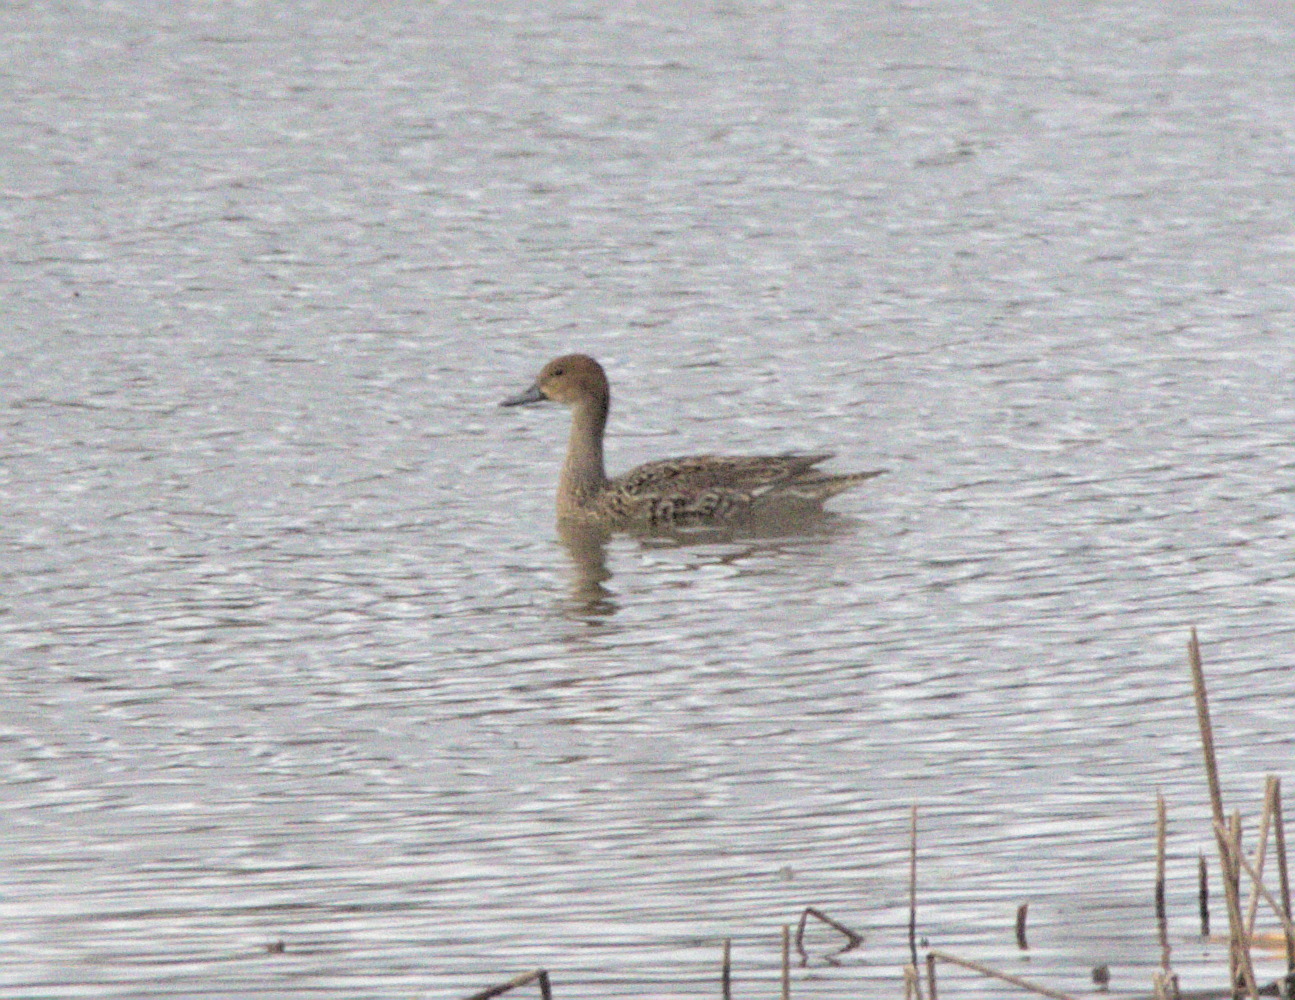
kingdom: Animalia
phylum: Chordata
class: Aves
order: Anseriformes
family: Anatidae
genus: Anas
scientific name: Anas acuta
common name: Northern pintail
